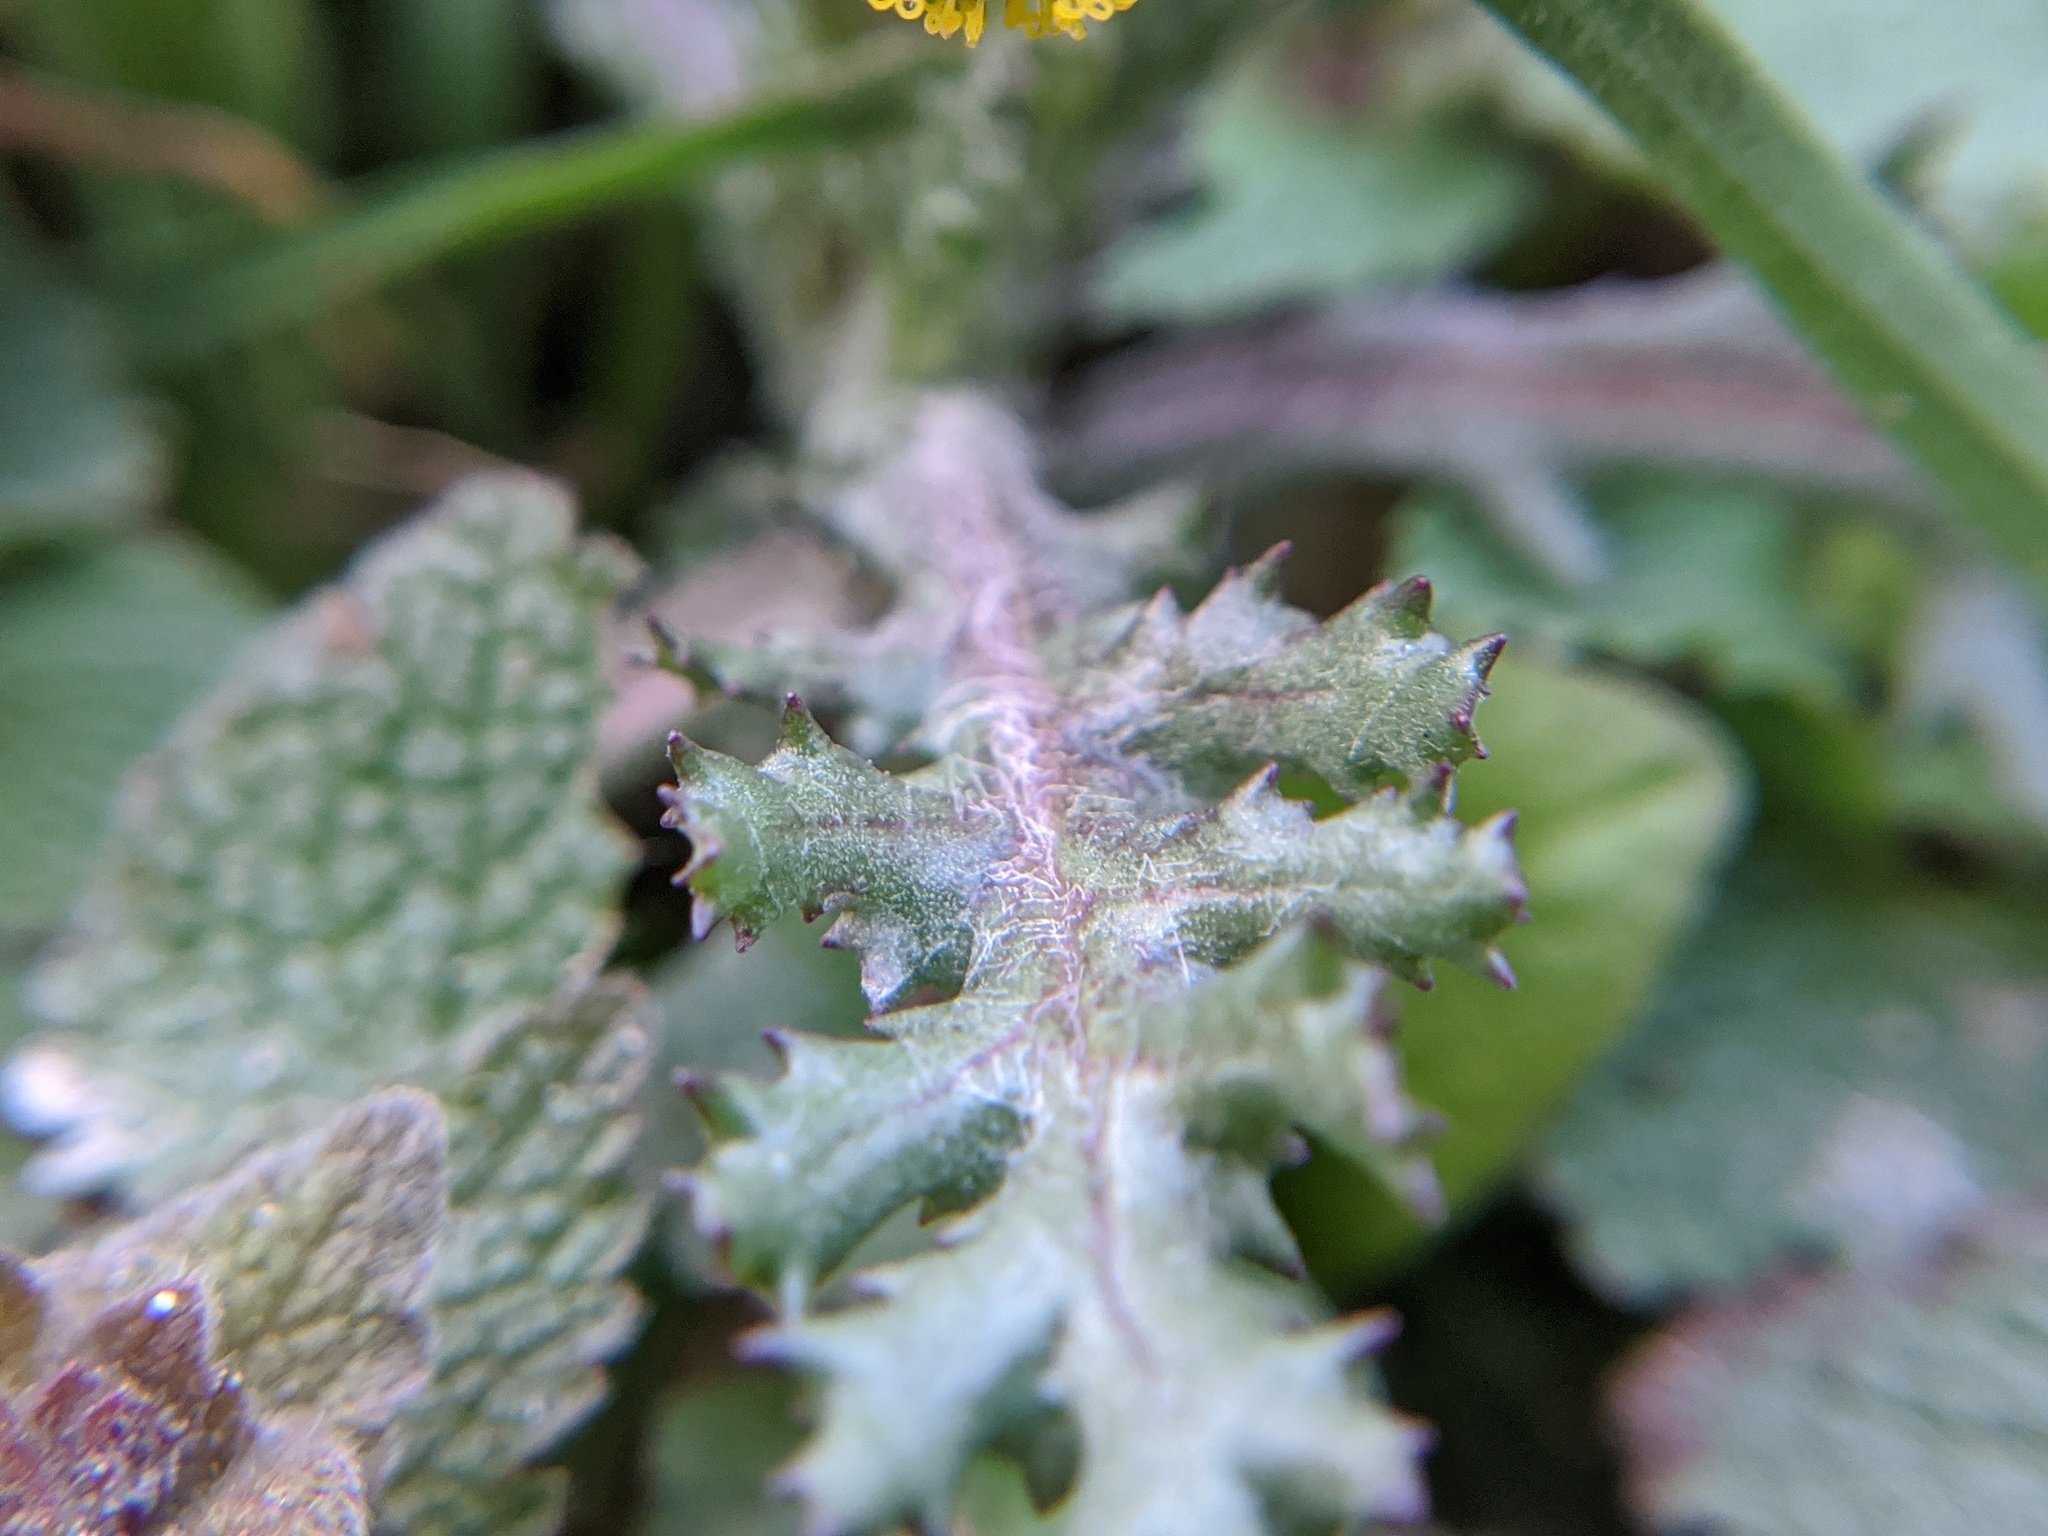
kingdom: Plantae
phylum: Tracheophyta
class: Magnoliopsida
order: Asterales
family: Asteraceae
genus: Senecio
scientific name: Senecio vulgaris
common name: Old-man-in-the-spring
